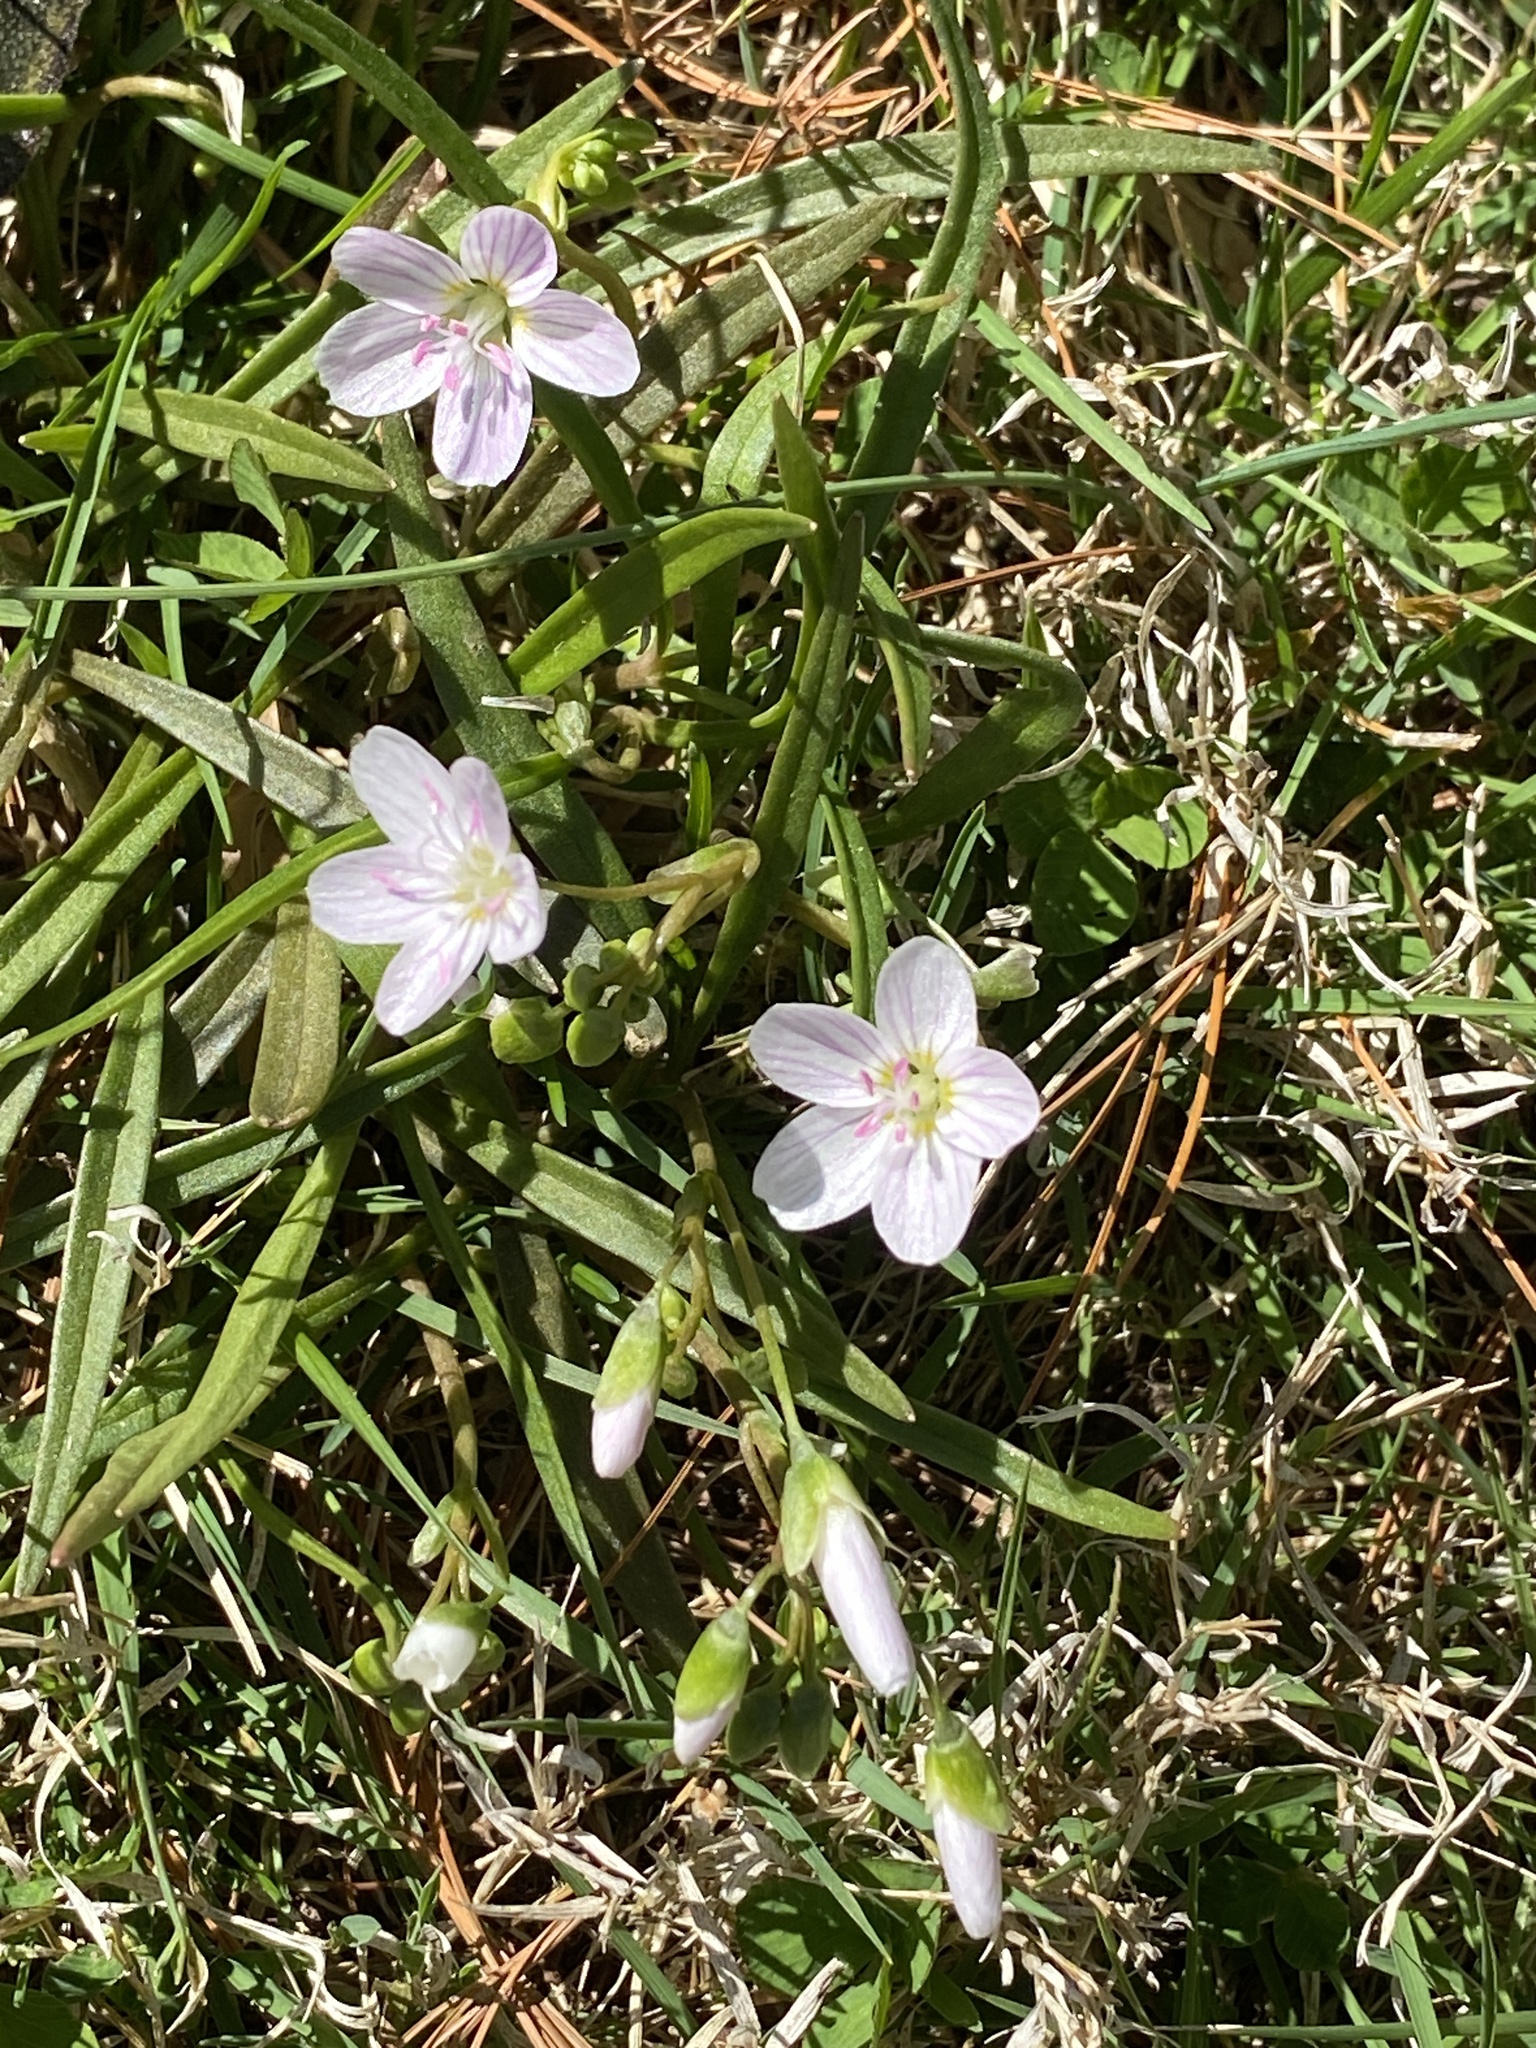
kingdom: Plantae
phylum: Tracheophyta
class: Magnoliopsida
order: Caryophyllales
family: Montiaceae
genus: Claytonia
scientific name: Claytonia virginica
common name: Virginia springbeauty
